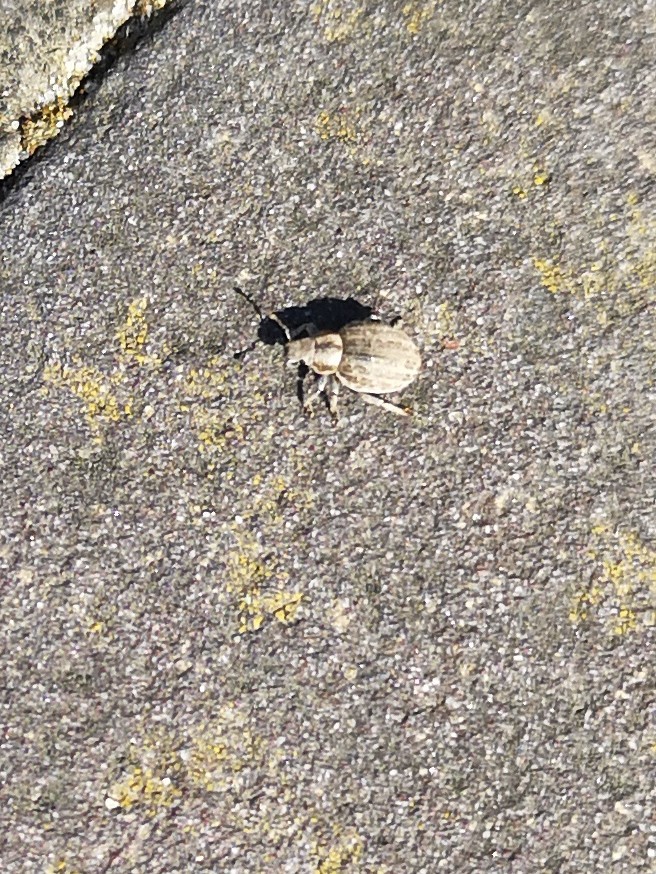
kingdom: Animalia
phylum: Arthropoda
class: Insecta
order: Coleoptera
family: Curculionidae
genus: Philopedon
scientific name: Philopedon plagiatum
